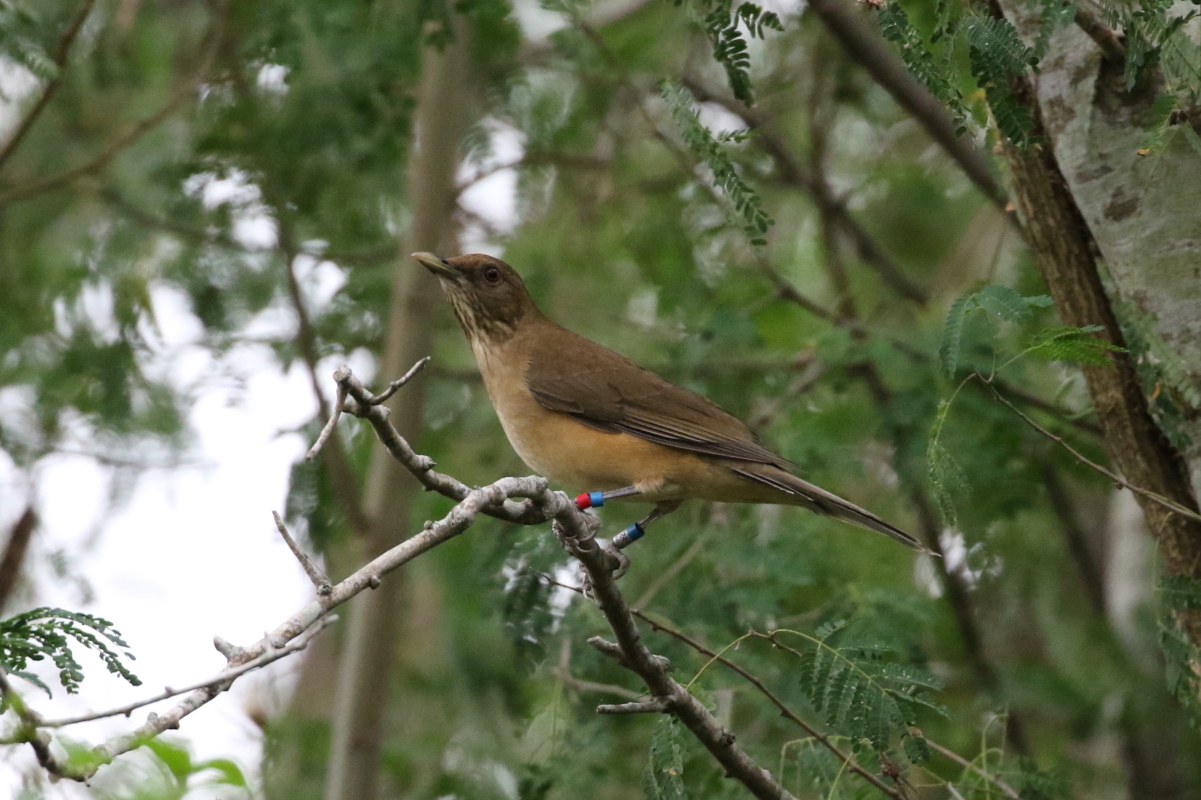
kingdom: Animalia
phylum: Chordata
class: Aves
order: Passeriformes
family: Turdidae
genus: Turdus
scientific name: Turdus grayi
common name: Clay-colored thrush
